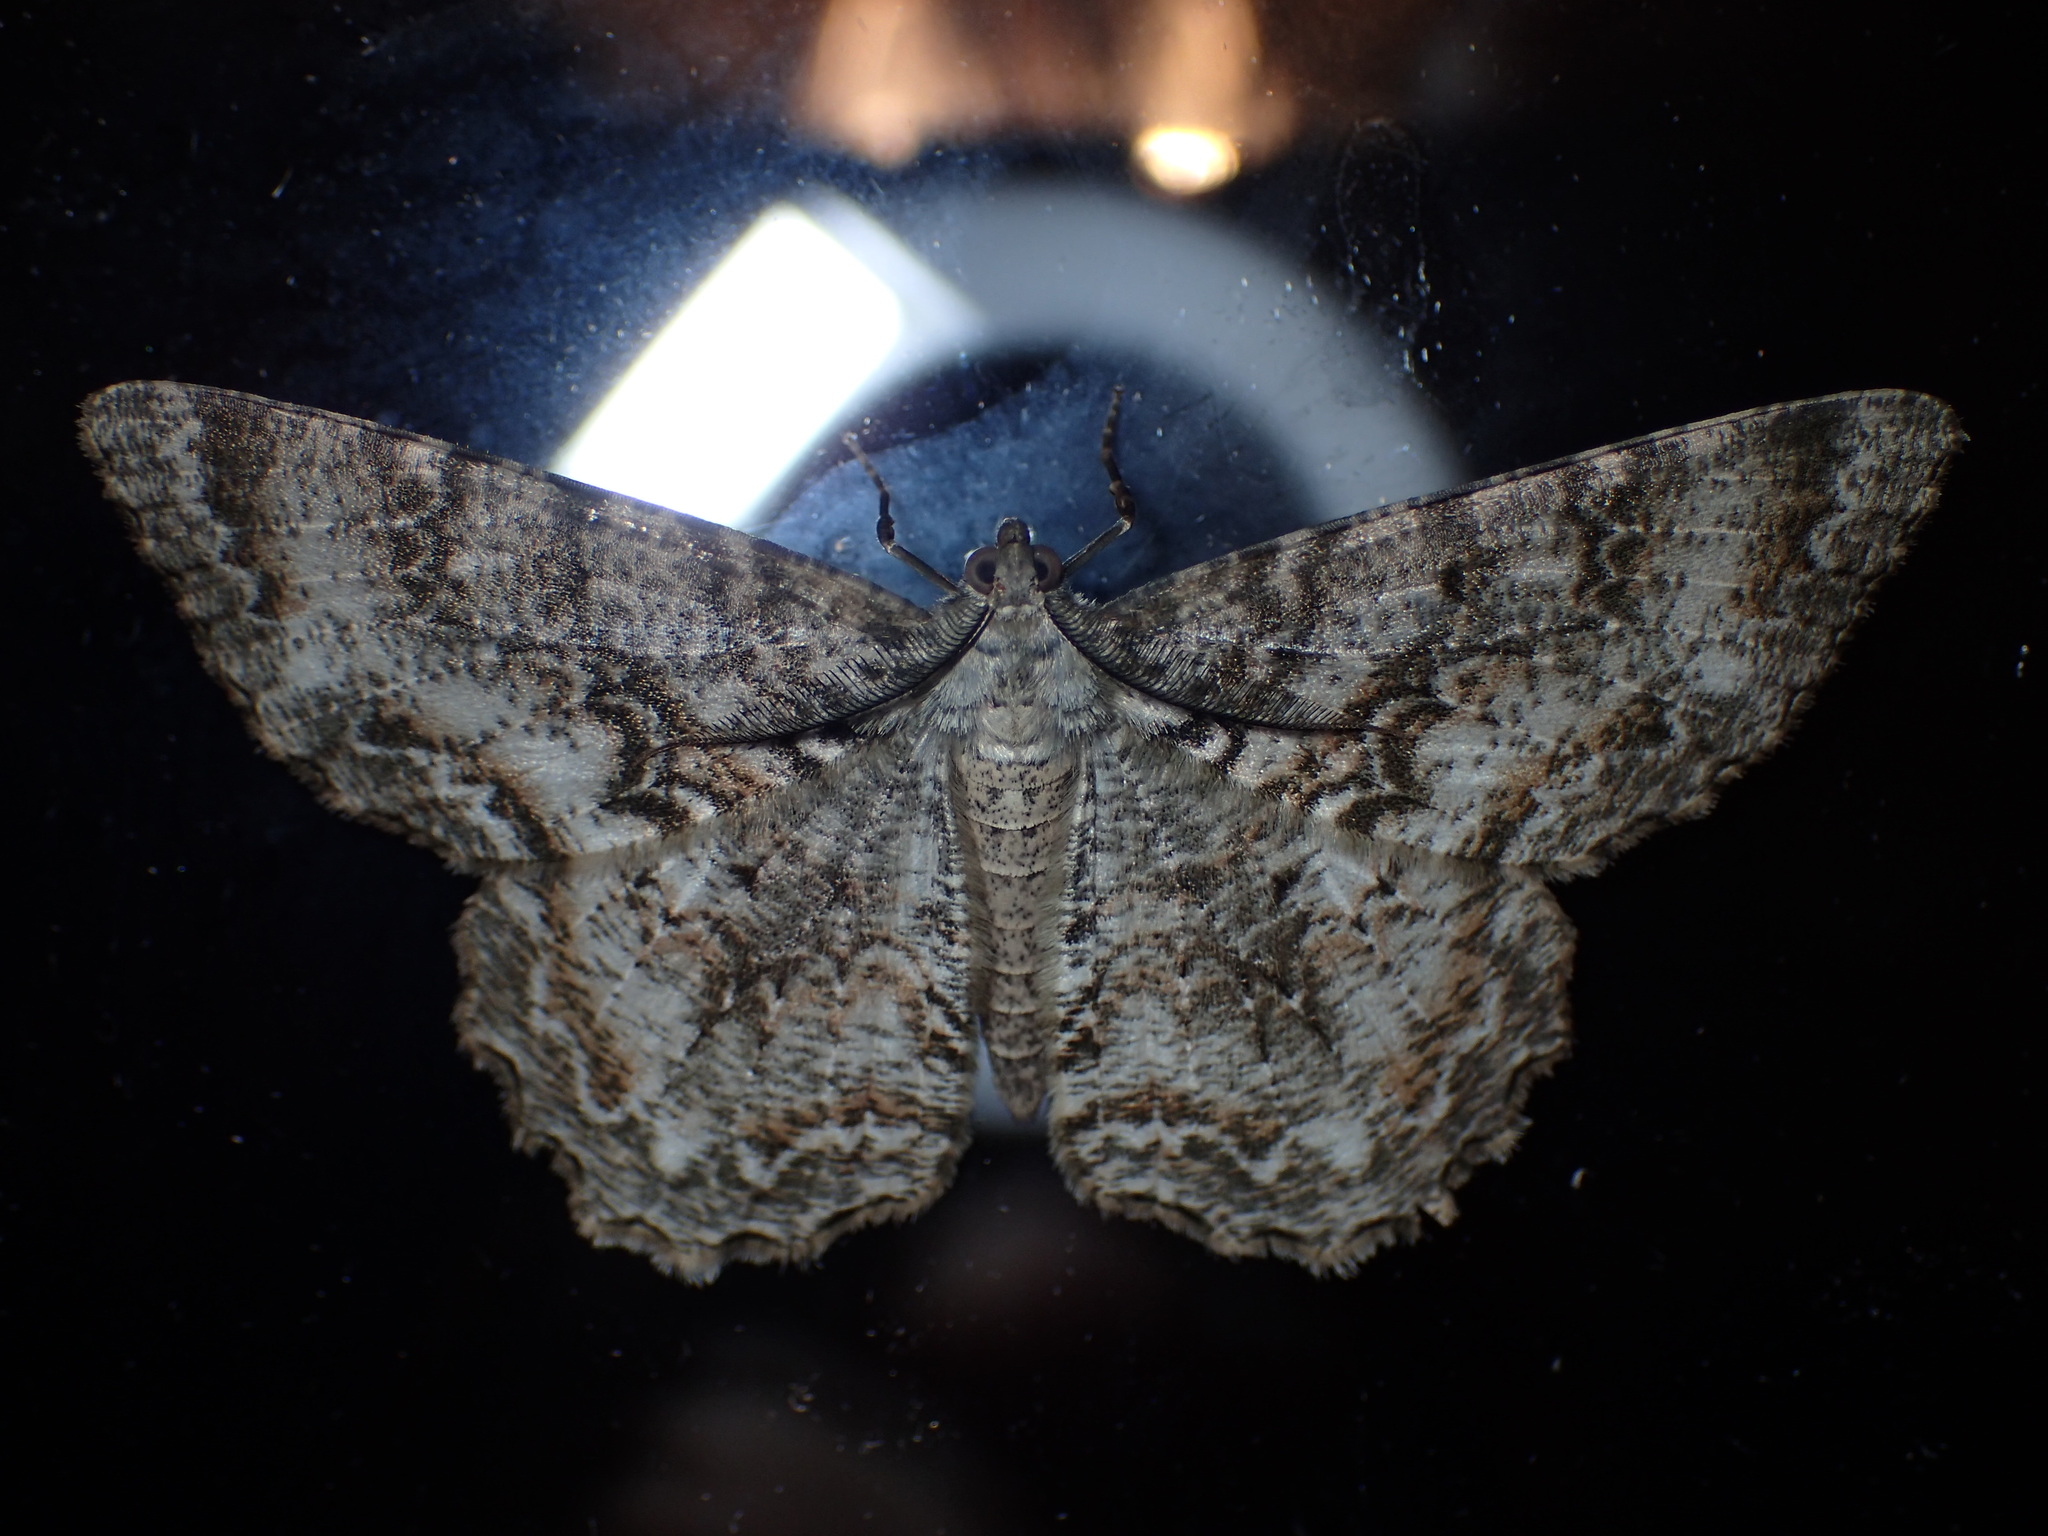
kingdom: Animalia
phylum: Arthropoda
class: Insecta
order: Lepidoptera
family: Geometridae
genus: Epimecis
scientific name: Epimecis hortaria
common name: Tulip-tree beauty
